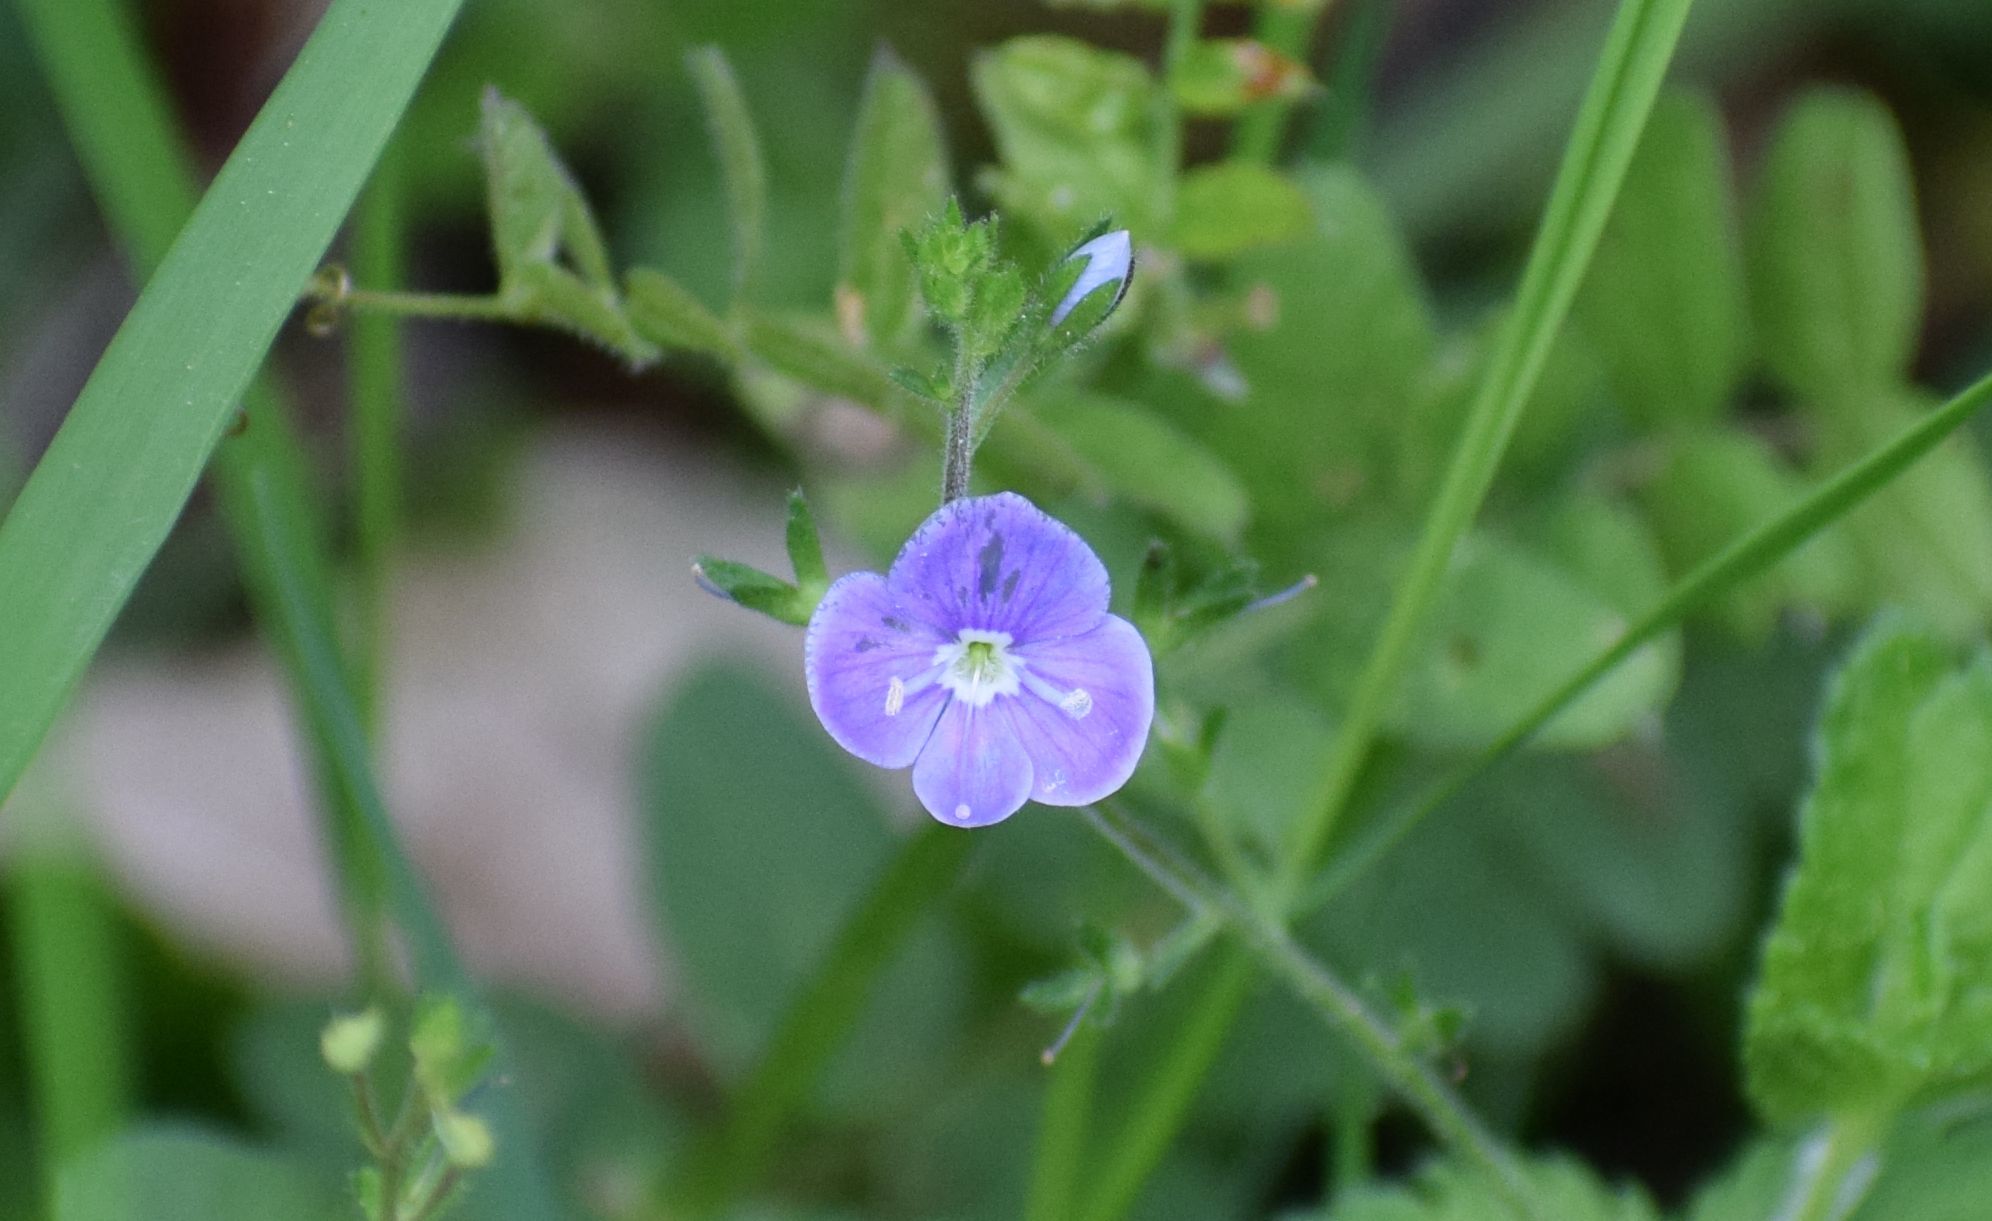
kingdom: Plantae
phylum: Tracheophyta
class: Magnoliopsida
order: Lamiales
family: Plantaginaceae
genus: Veronica
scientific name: Veronica chamaedrys
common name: Germander speedwell
